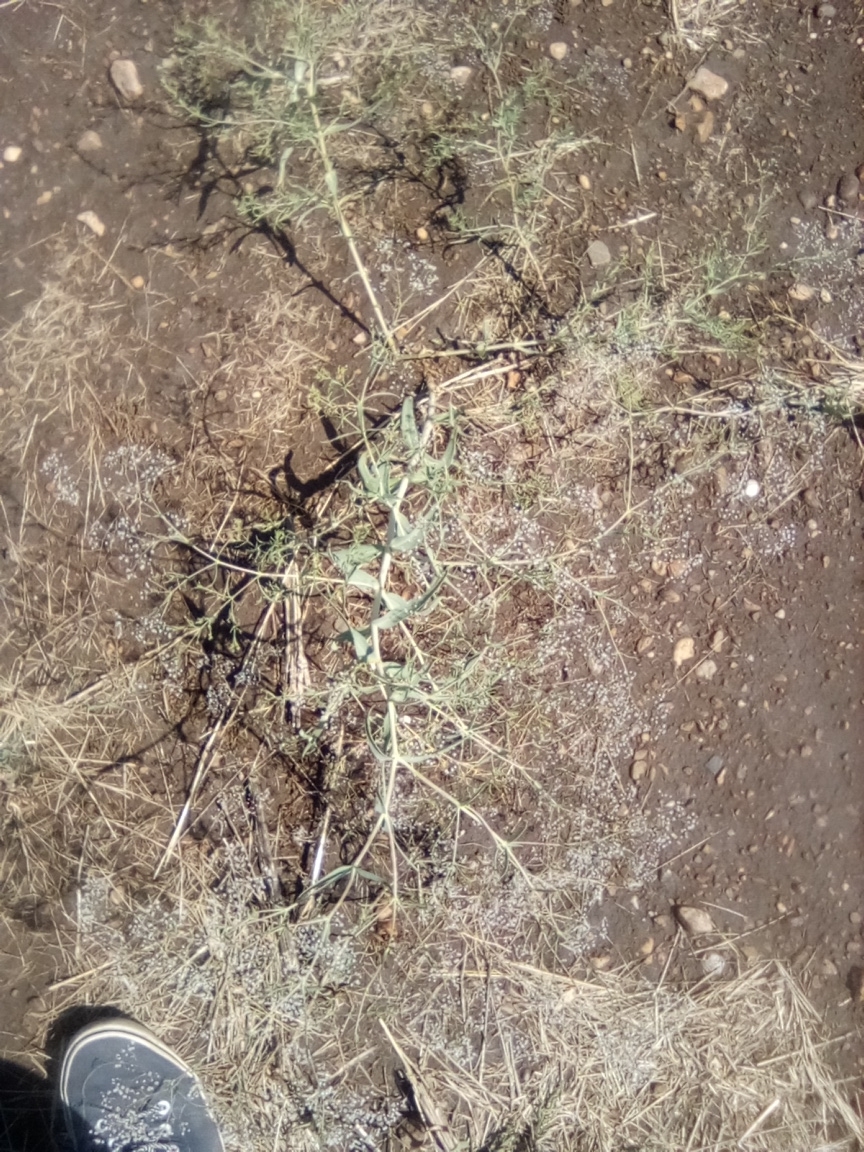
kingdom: Plantae
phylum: Tracheophyta
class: Magnoliopsida
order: Caryophyllales
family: Caryophyllaceae
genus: Gypsophila
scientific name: Gypsophila paniculata
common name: Baby's-breath
